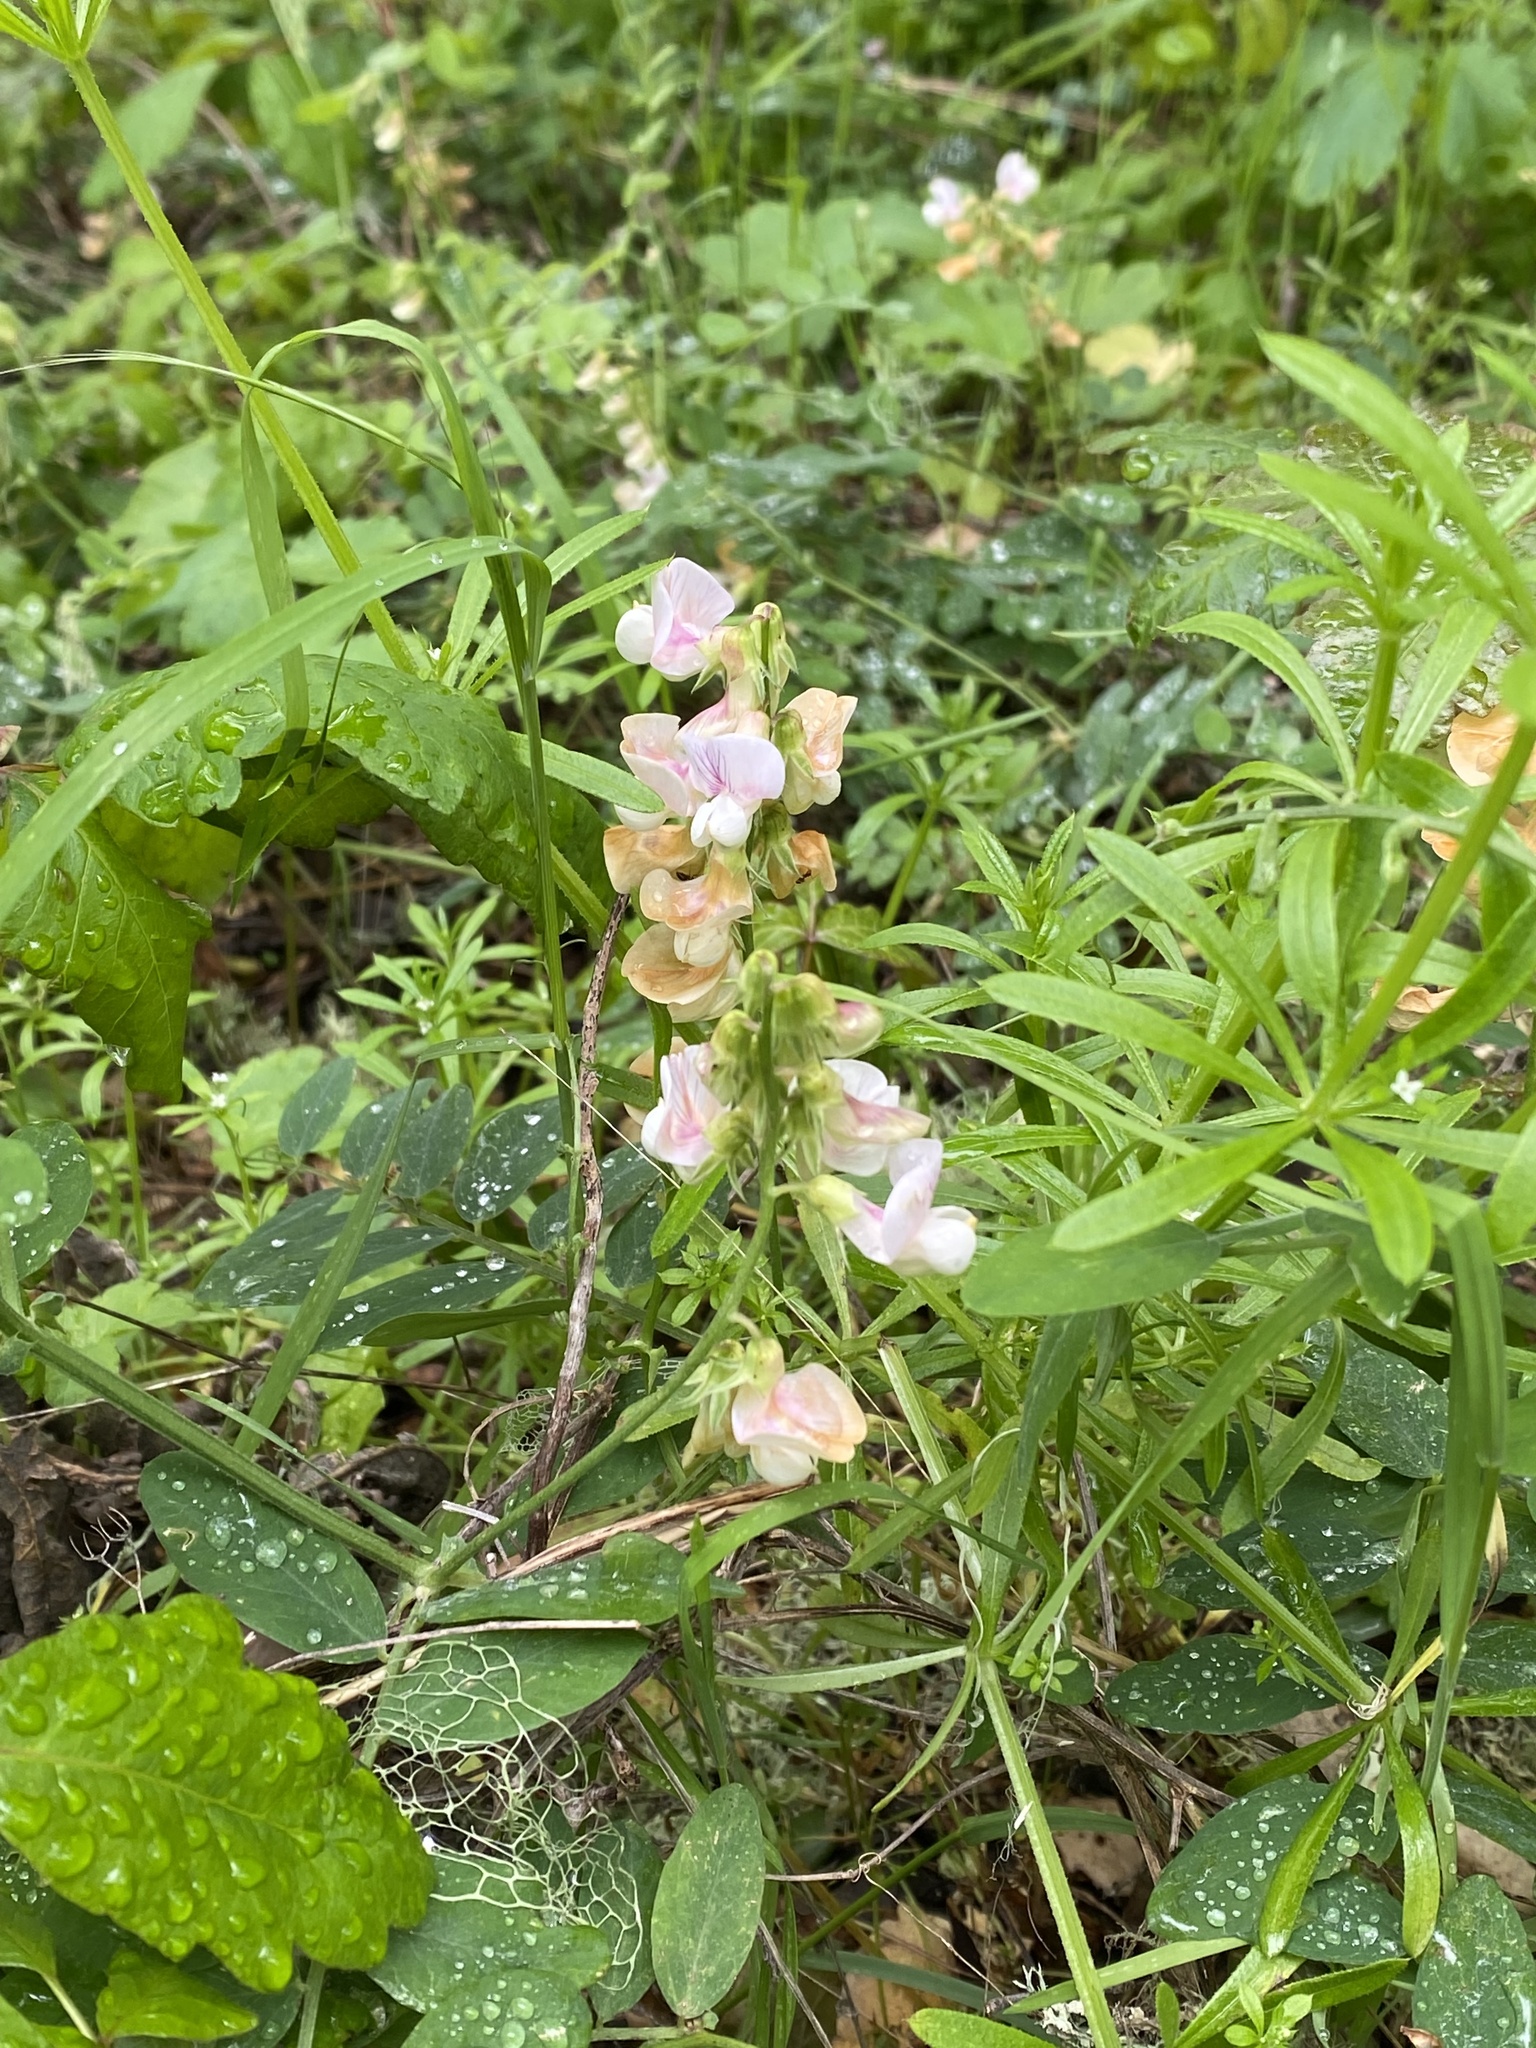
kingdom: Plantae
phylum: Tracheophyta
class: Magnoliopsida
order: Fabales
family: Fabaceae
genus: Lathyrus
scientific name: Lathyrus vestitus
